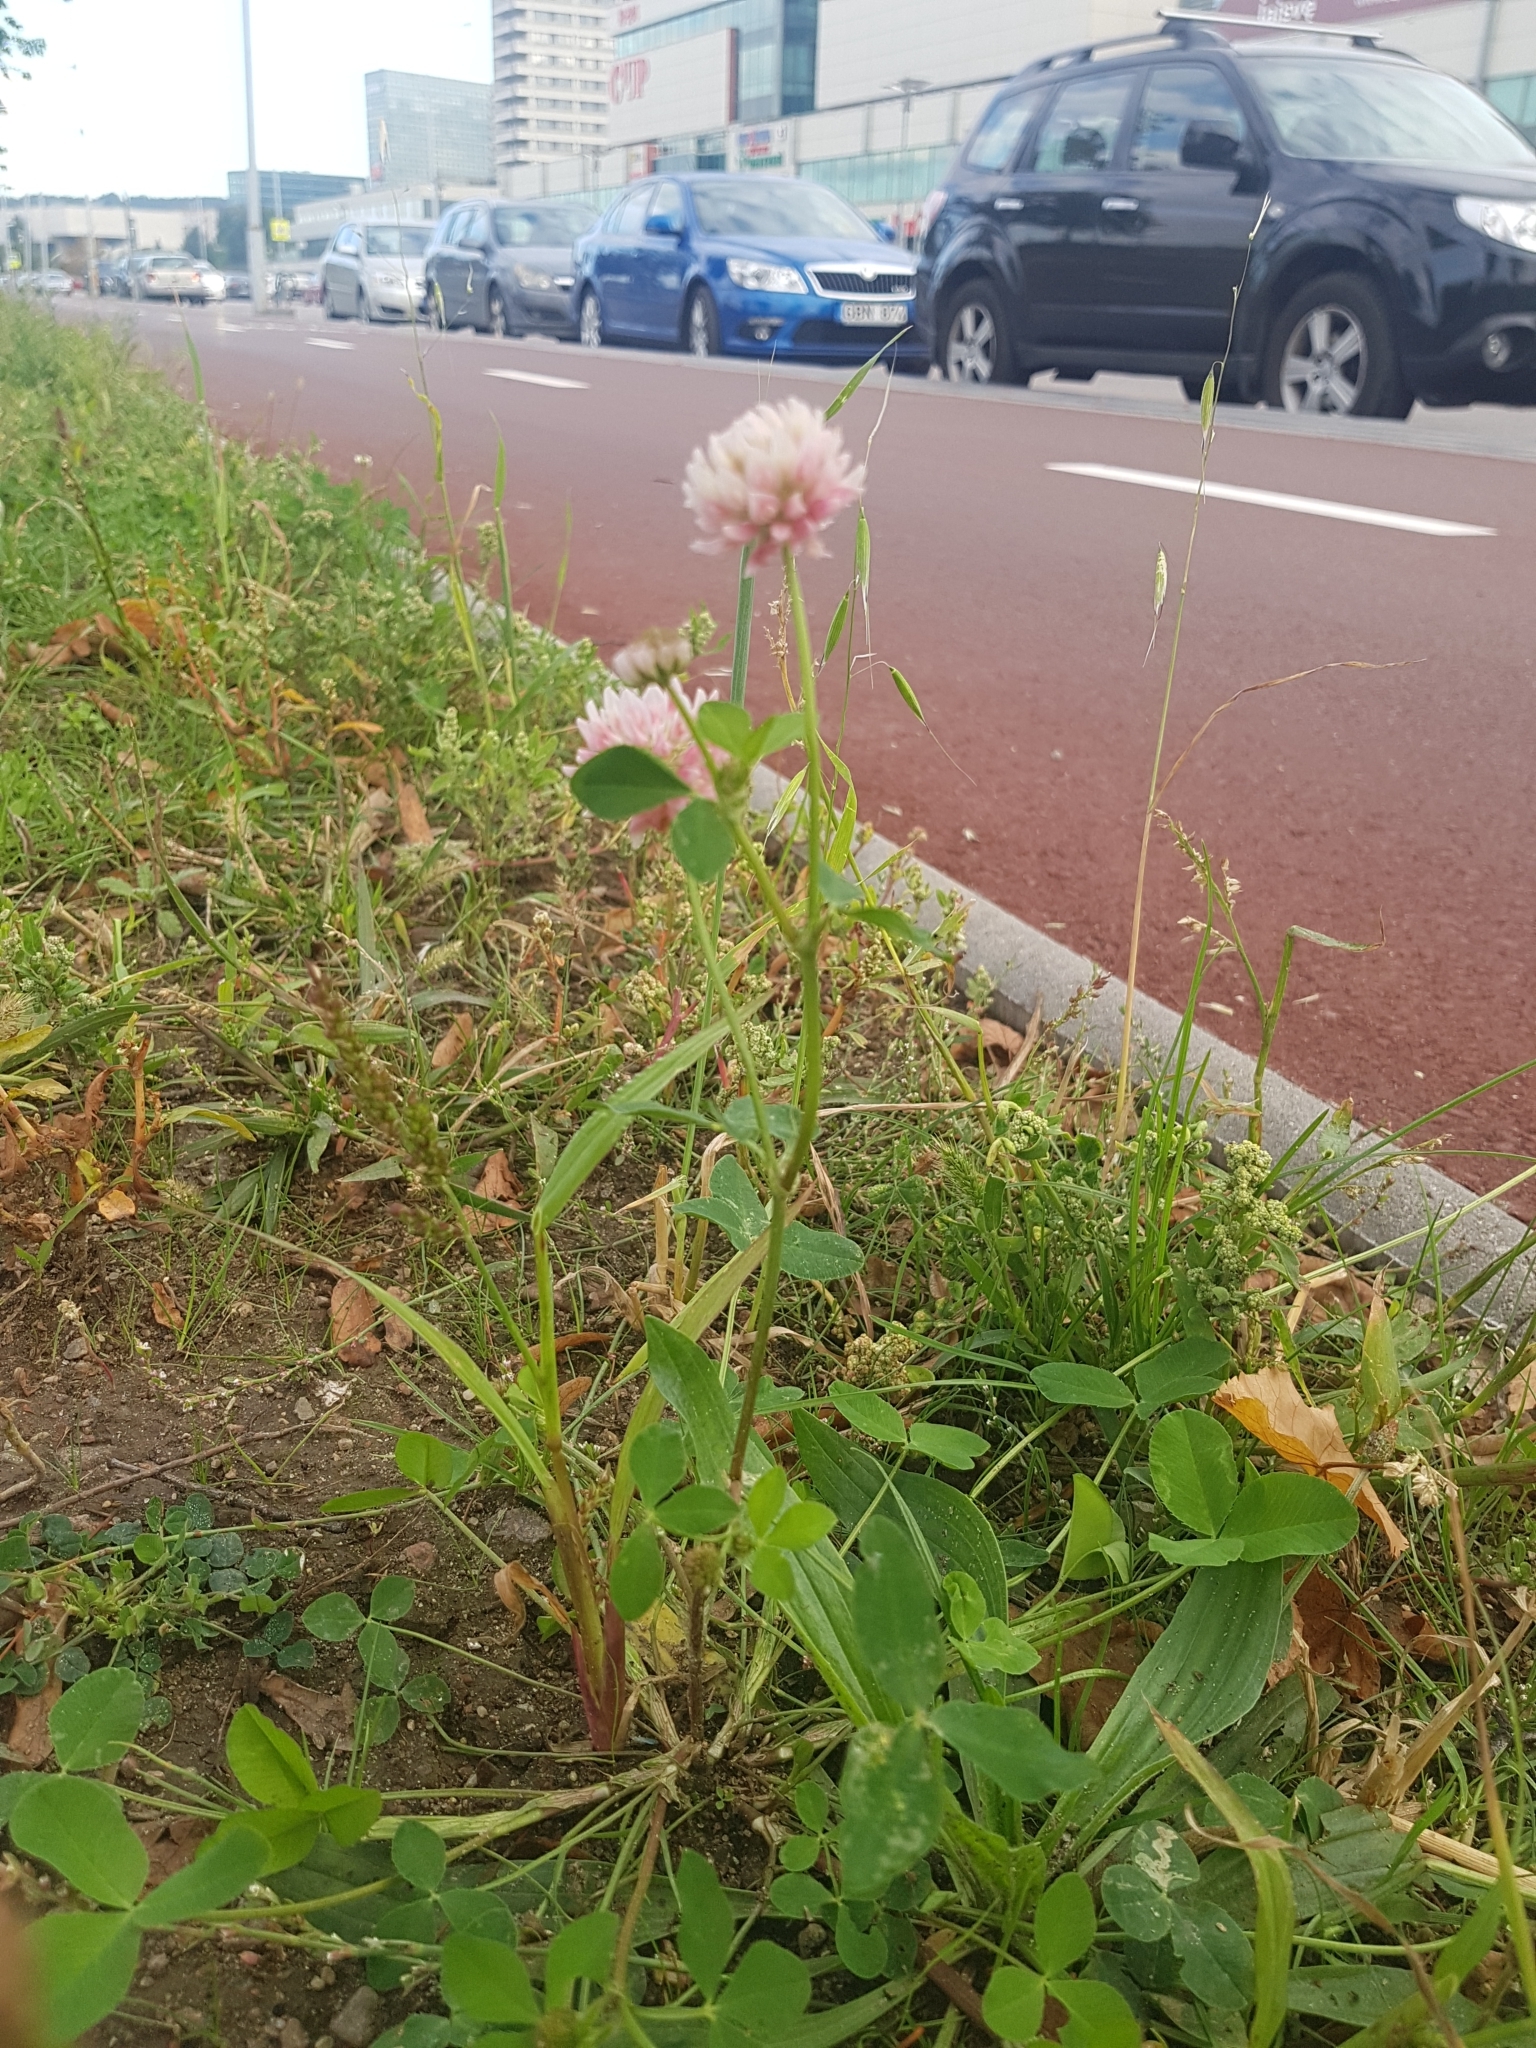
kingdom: Plantae
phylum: Tracheophyta
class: Magnoliopsida
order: Fabales
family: Fabaceae
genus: Trifolium
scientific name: Trifolium hybridum
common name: Alsike clover
